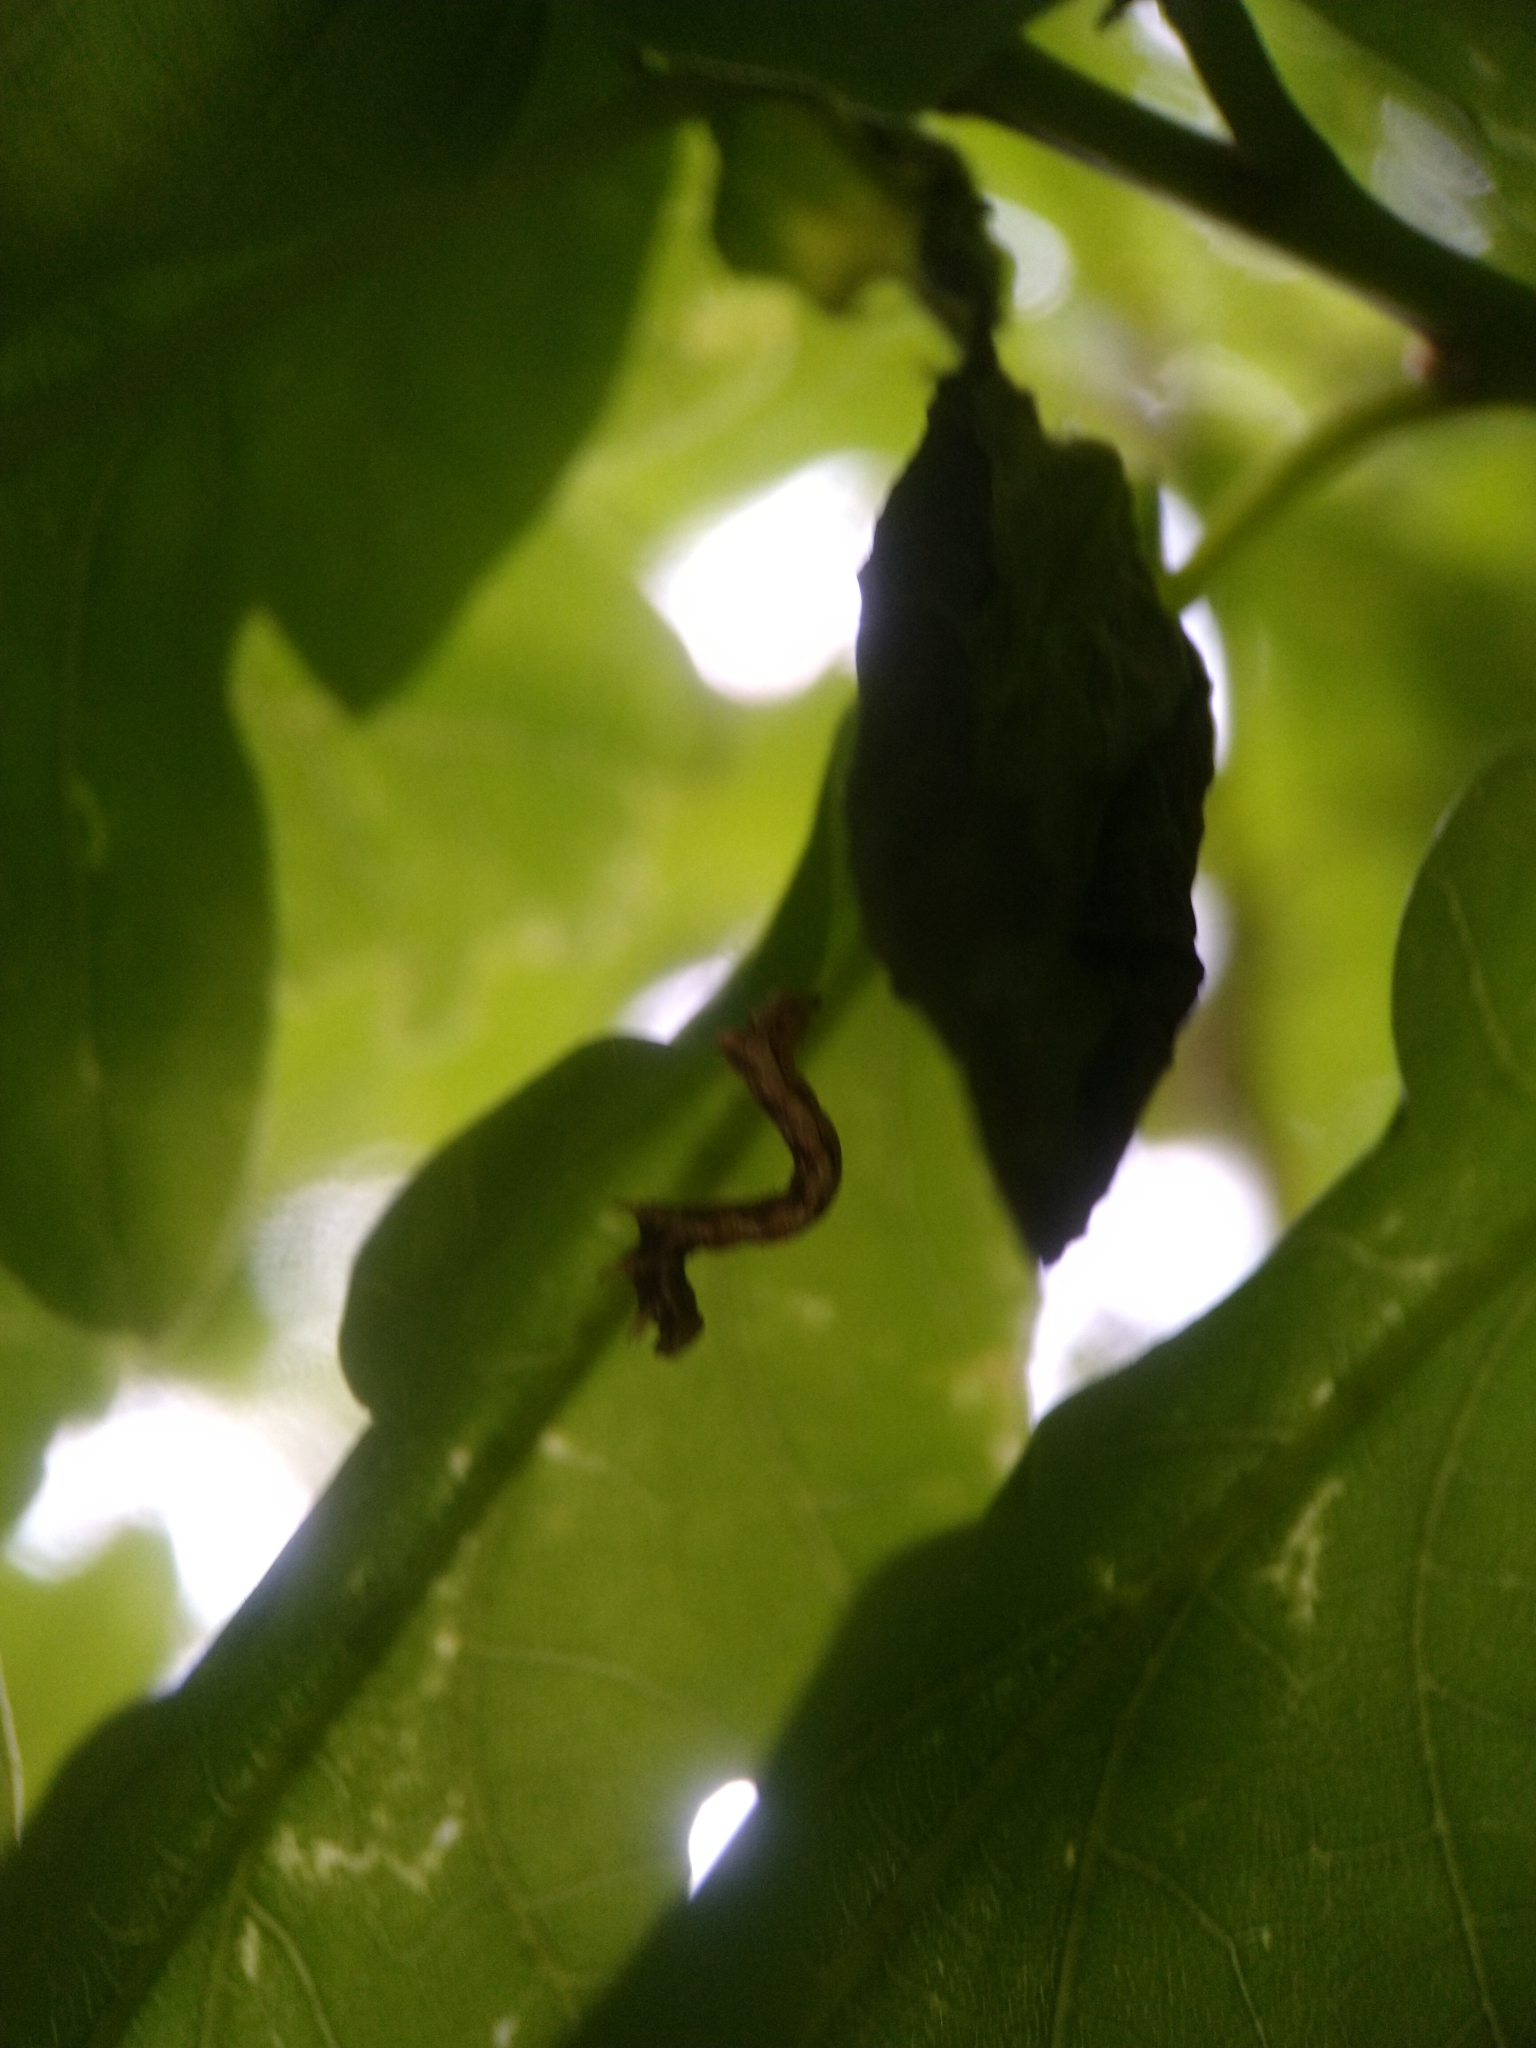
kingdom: Animalia
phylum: Arthropoda
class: Insecta
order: Lepidoptera
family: Geometridae
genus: Erannis
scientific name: Erannis defoliaria
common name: Mottled umber
